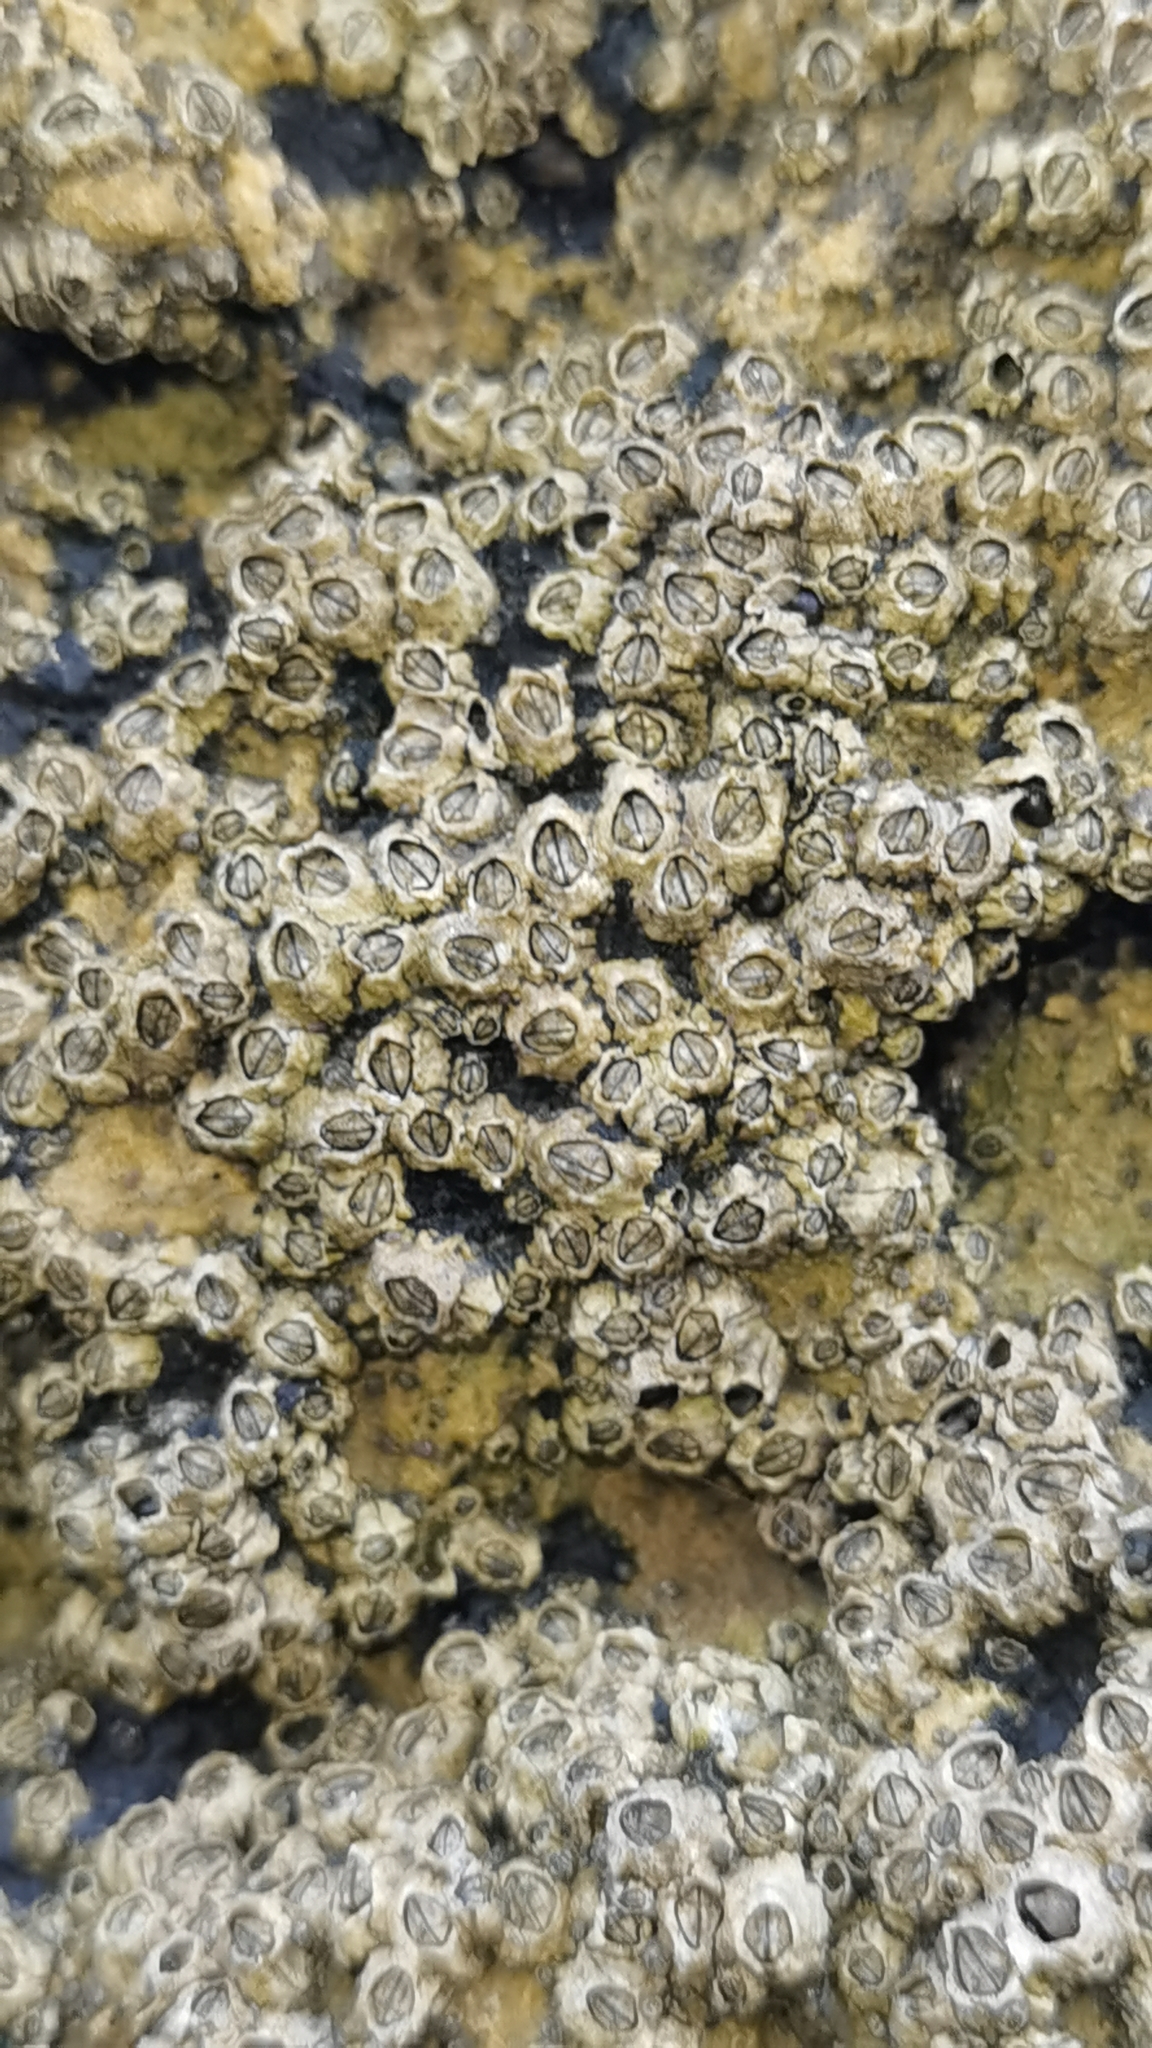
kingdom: Animalia
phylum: Arthropoda
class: Maxillopoda
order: Sessilia
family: Chthamalidae
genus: Chthamalus
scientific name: Chthamalus montagui
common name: Montagu's stellate barnacle
